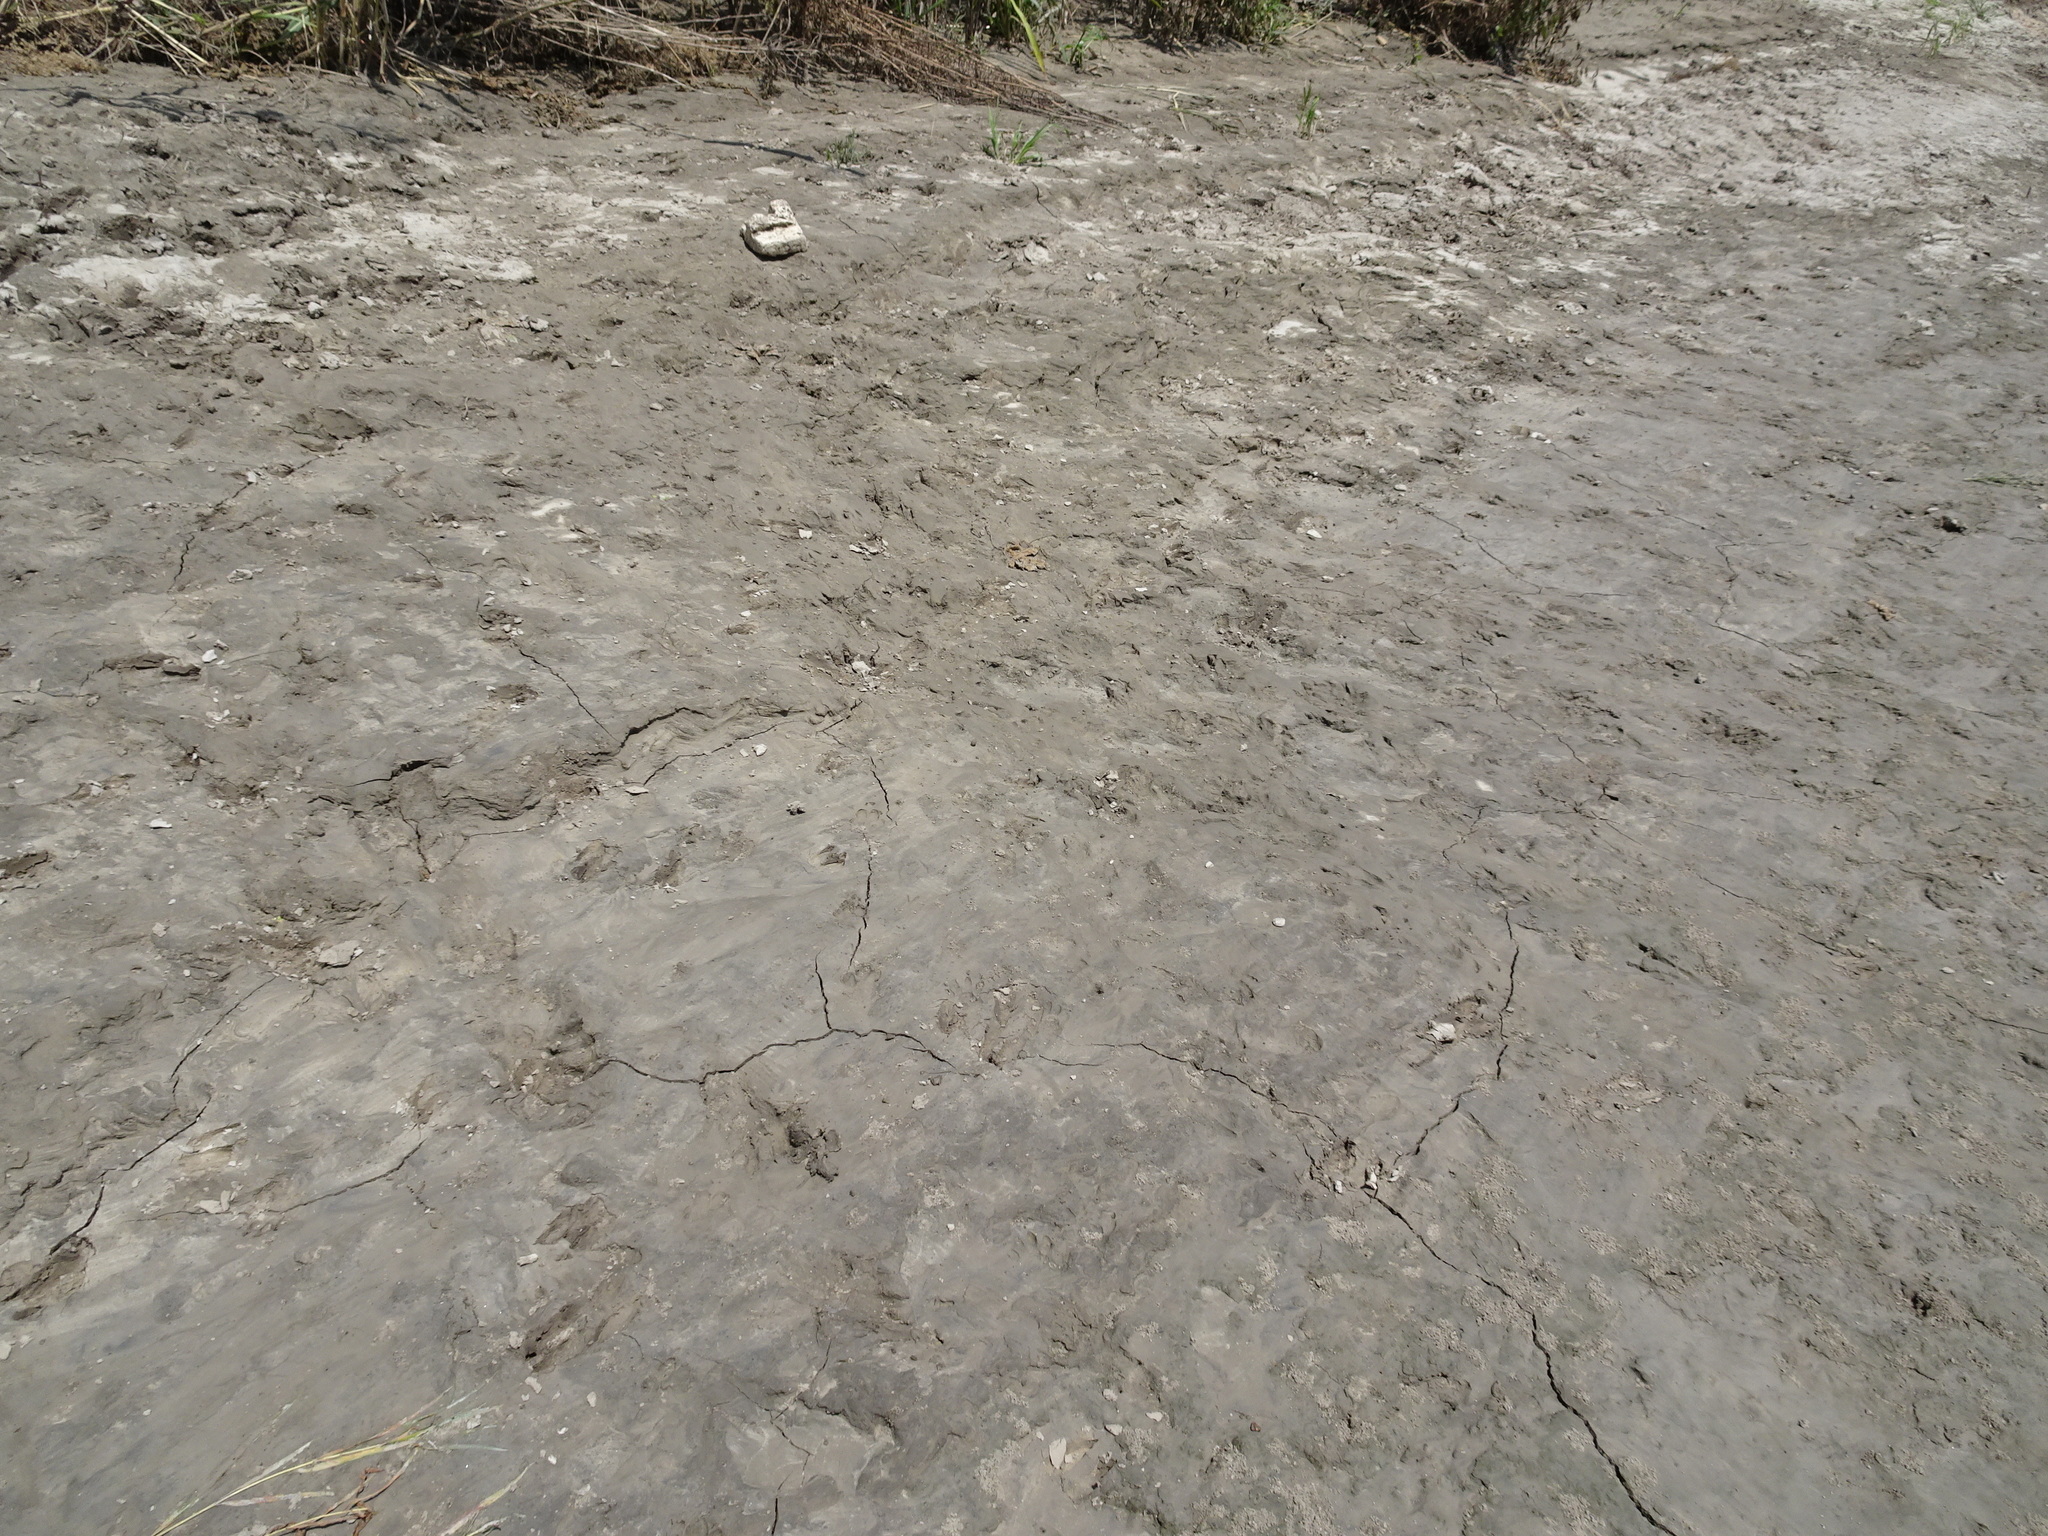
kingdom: Animalia
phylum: Chordata
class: Mammalia
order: Rodentia
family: Castoridae
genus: Castor
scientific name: Castor canadensis
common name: American beaver
